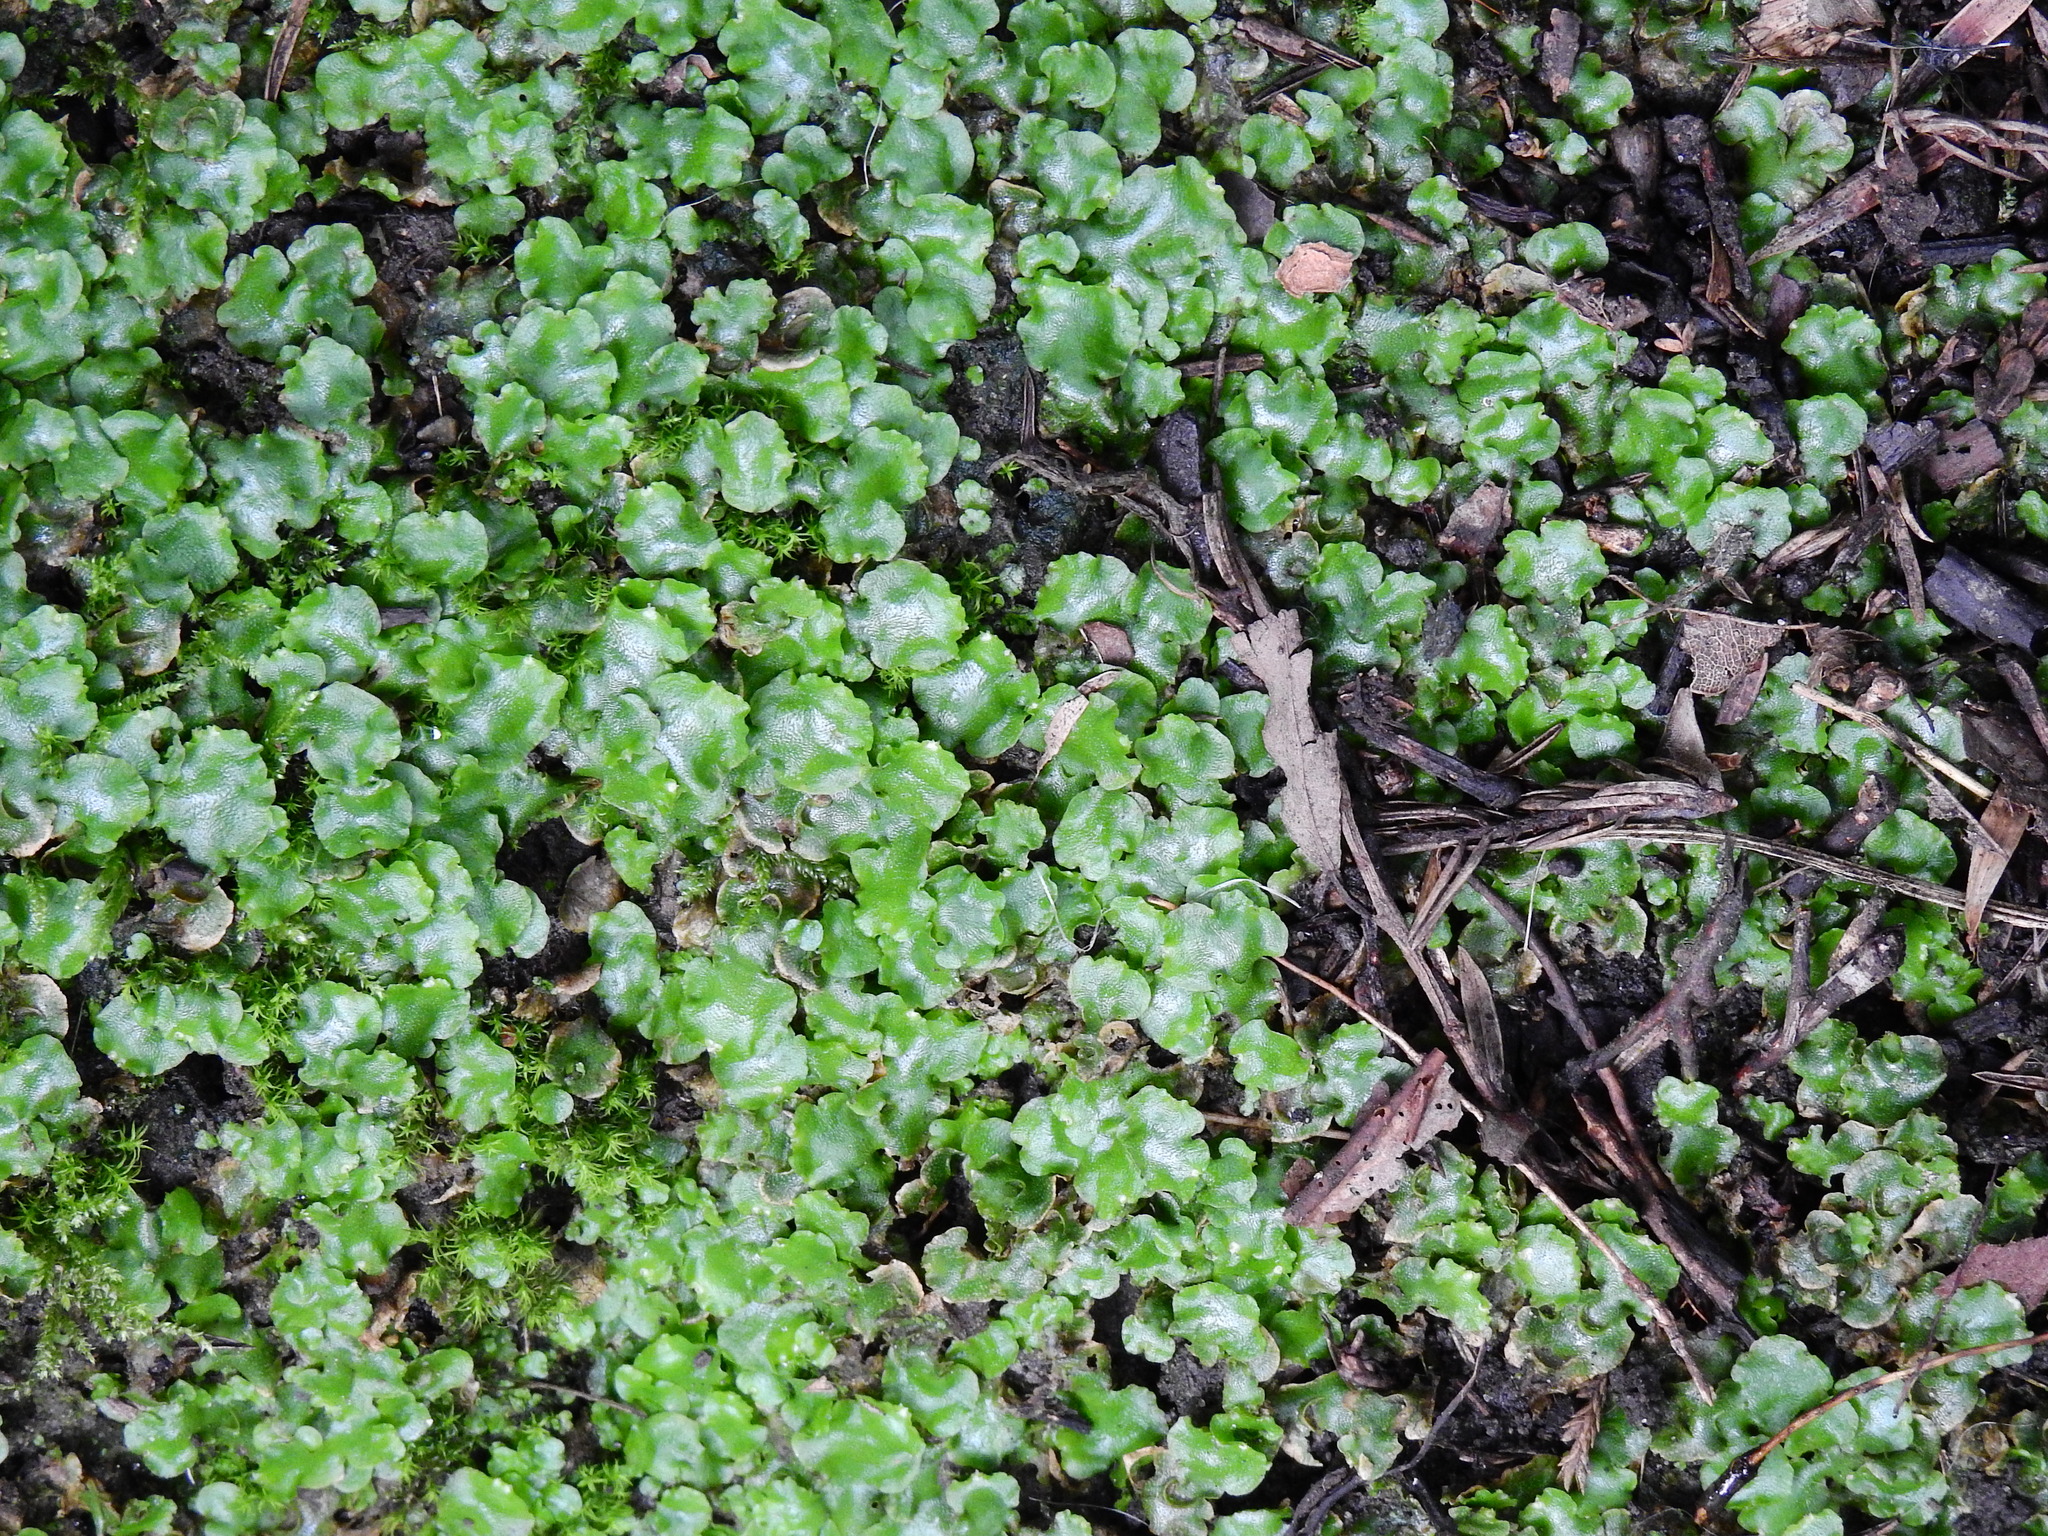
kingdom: Plantae
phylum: Marchantiophyta
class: Marchantiopsida
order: Lunulariales
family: Lunulariaceae
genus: Lunularia
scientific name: Lunularia cruciata
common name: Crescent-cup liverwort
